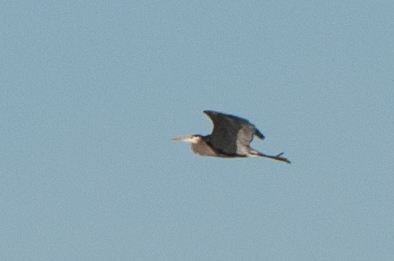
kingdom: Animalia
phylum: Chordata
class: Aves
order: Pelecaniformes
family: Ardeidae
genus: Ardea
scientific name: Ardea herodias
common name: Great blue heron
